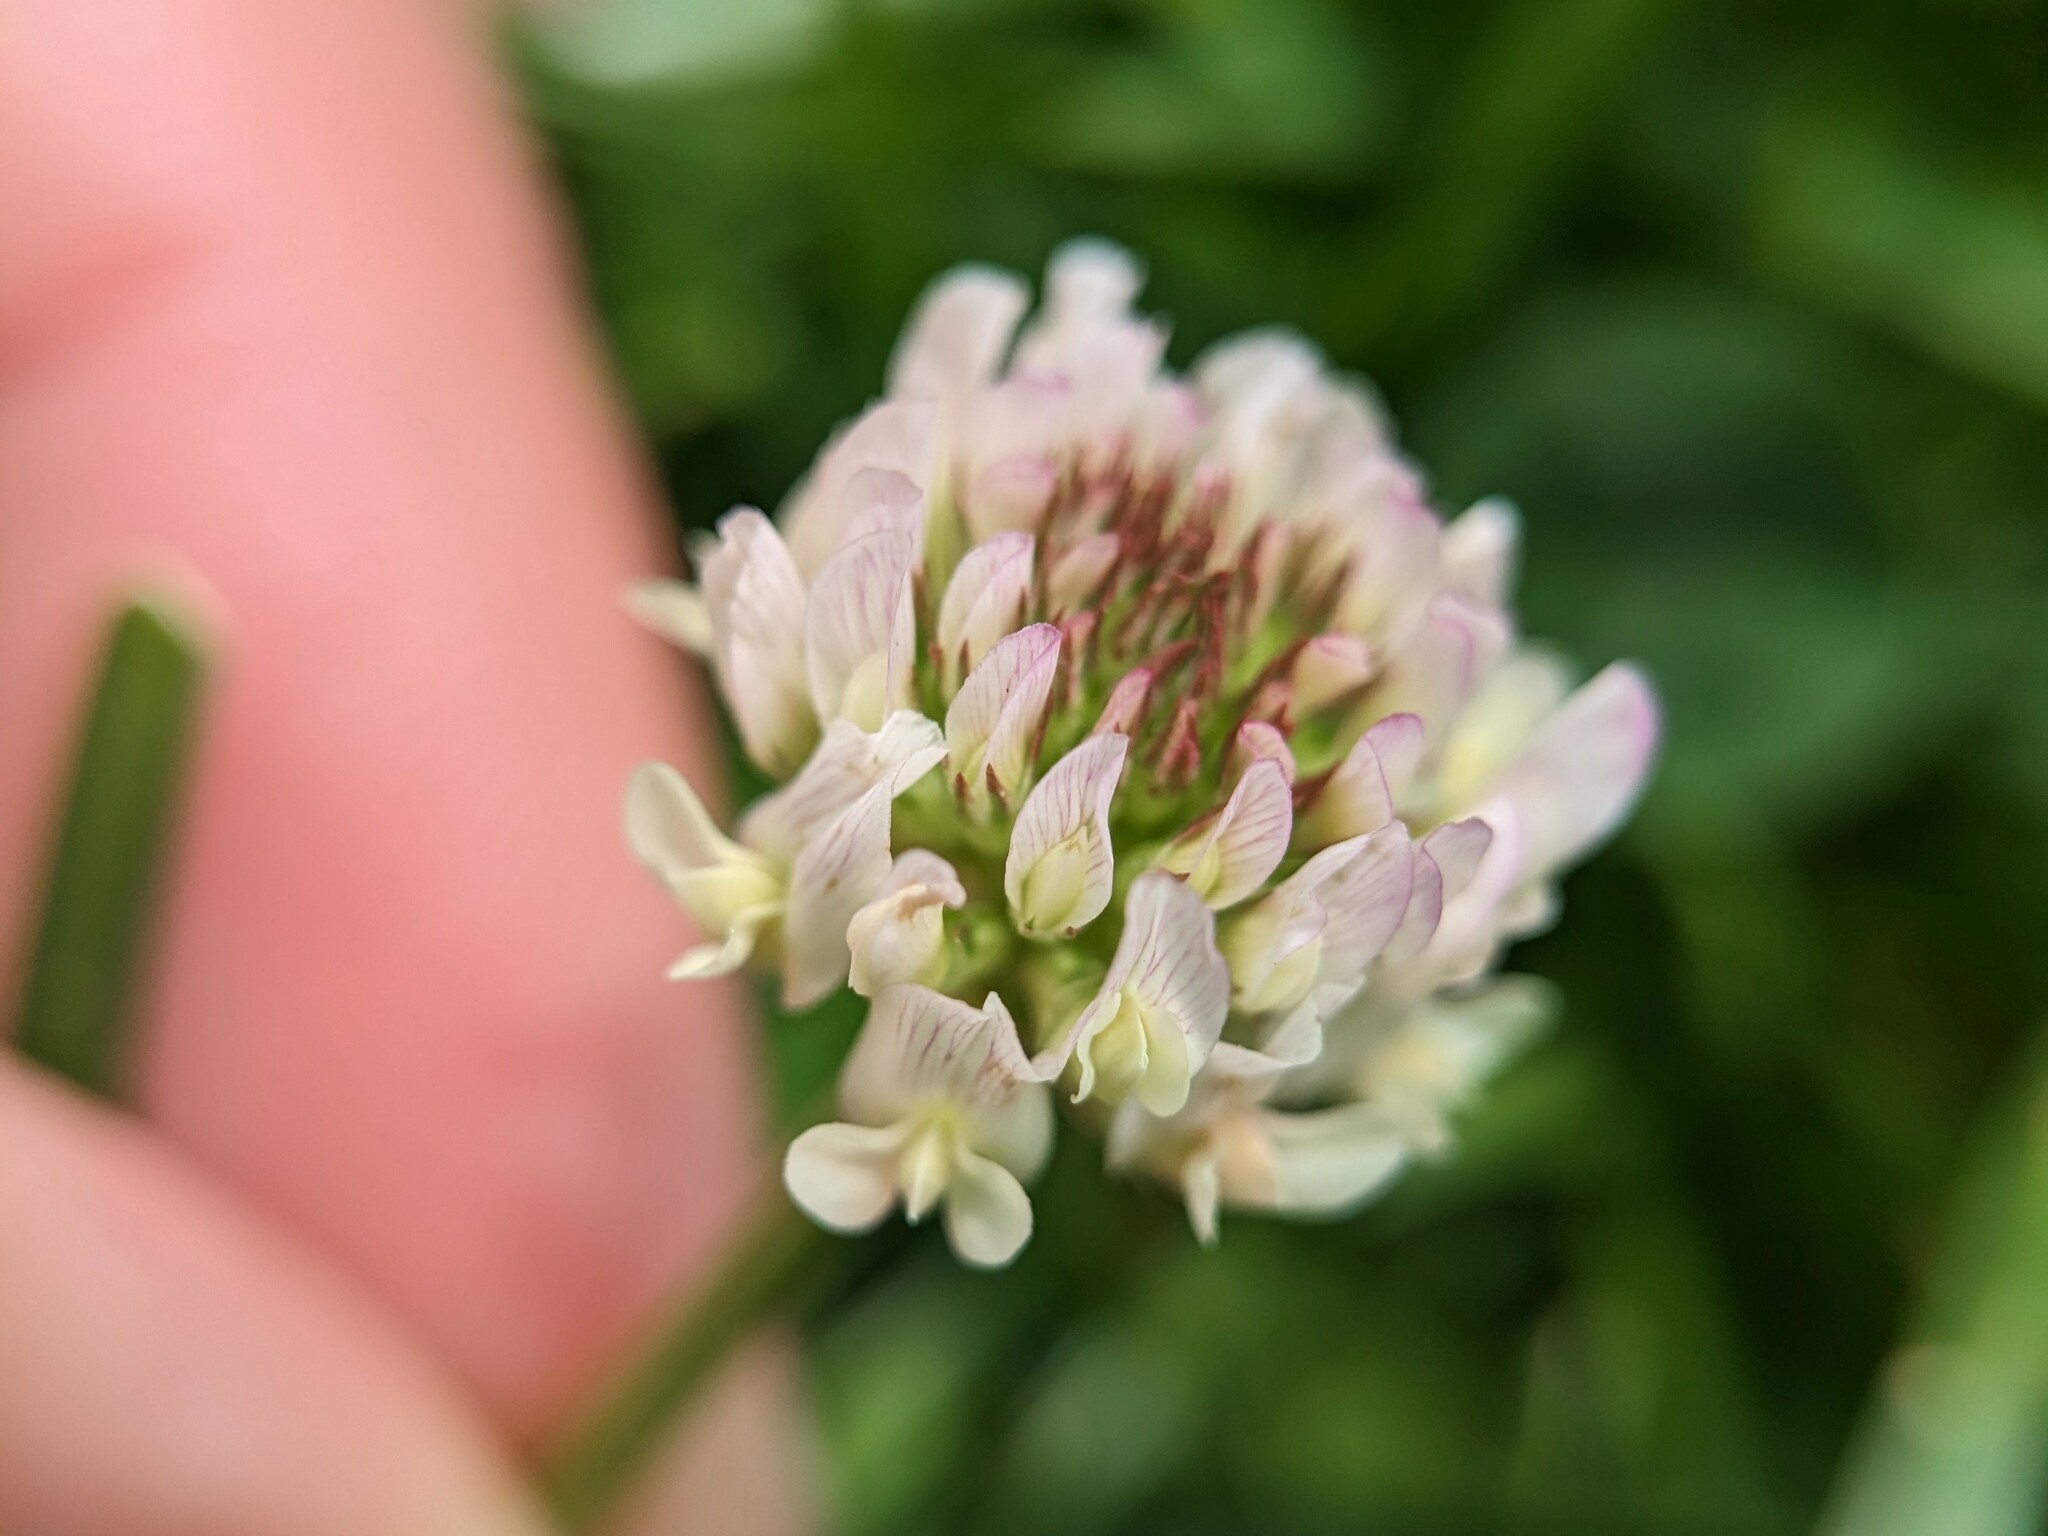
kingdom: Plantae
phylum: Tracheophyta
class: Magnoliopsida
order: Fabales
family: Fabaceae
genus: Trifolium
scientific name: Trifolium repens
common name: White clover
